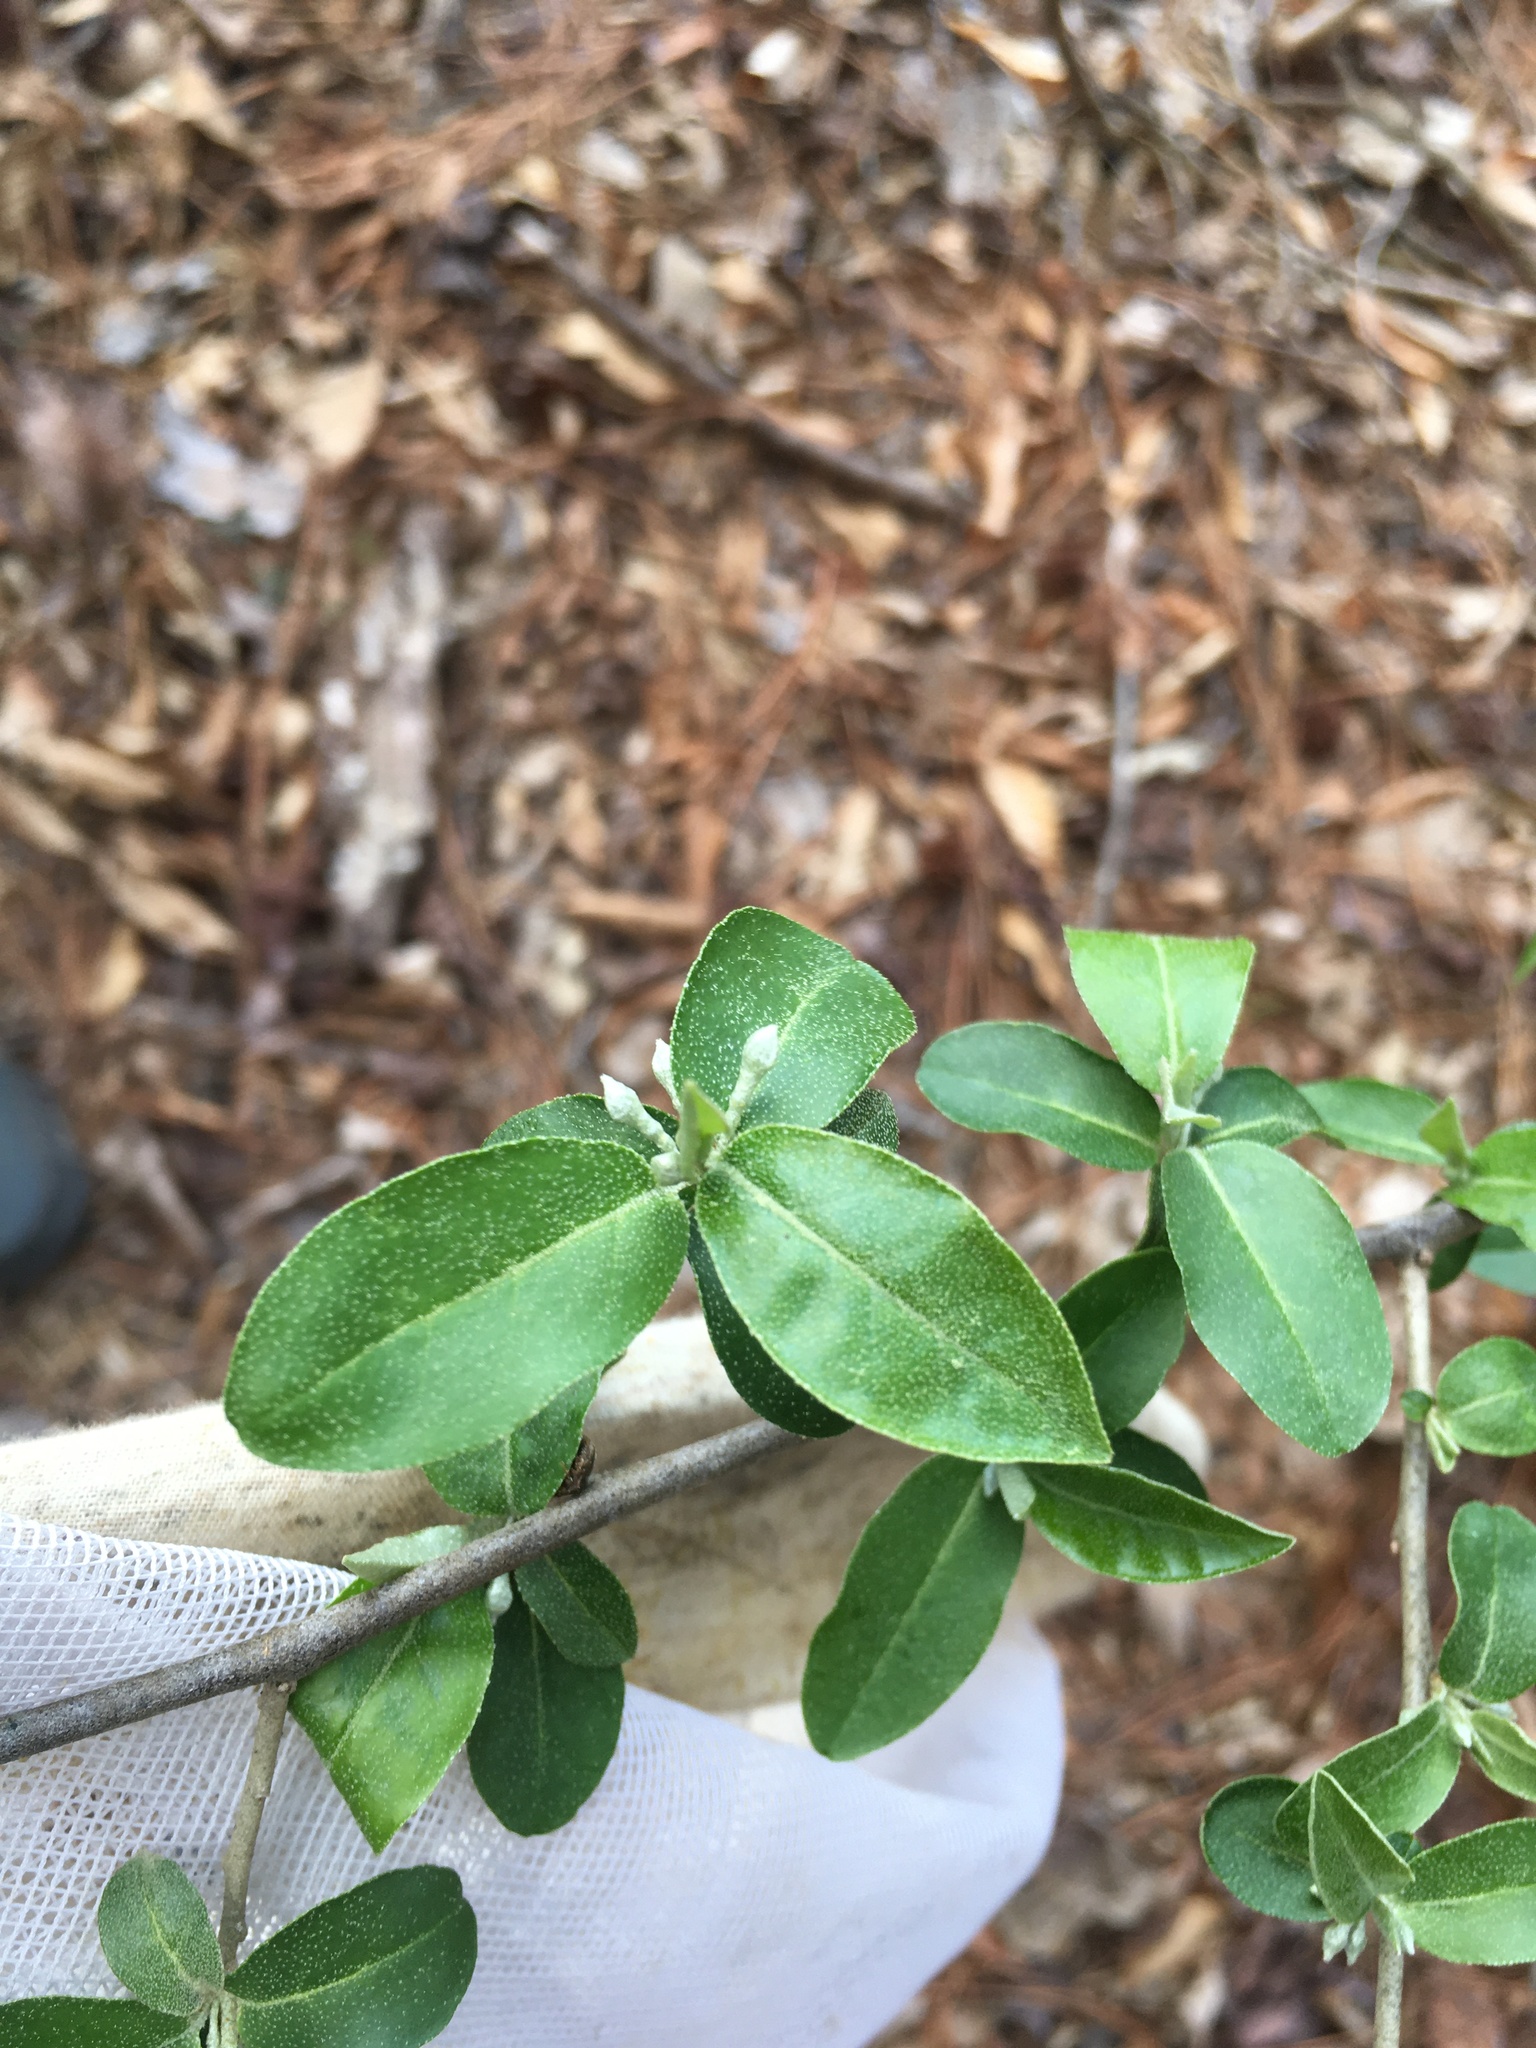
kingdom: Plantae
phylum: Tracheophyta
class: Magnoliopsida
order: Rosales
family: Elaeagnaceae
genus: Elaeagnus
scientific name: Elaeagnus umbellata
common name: Autumn olive
